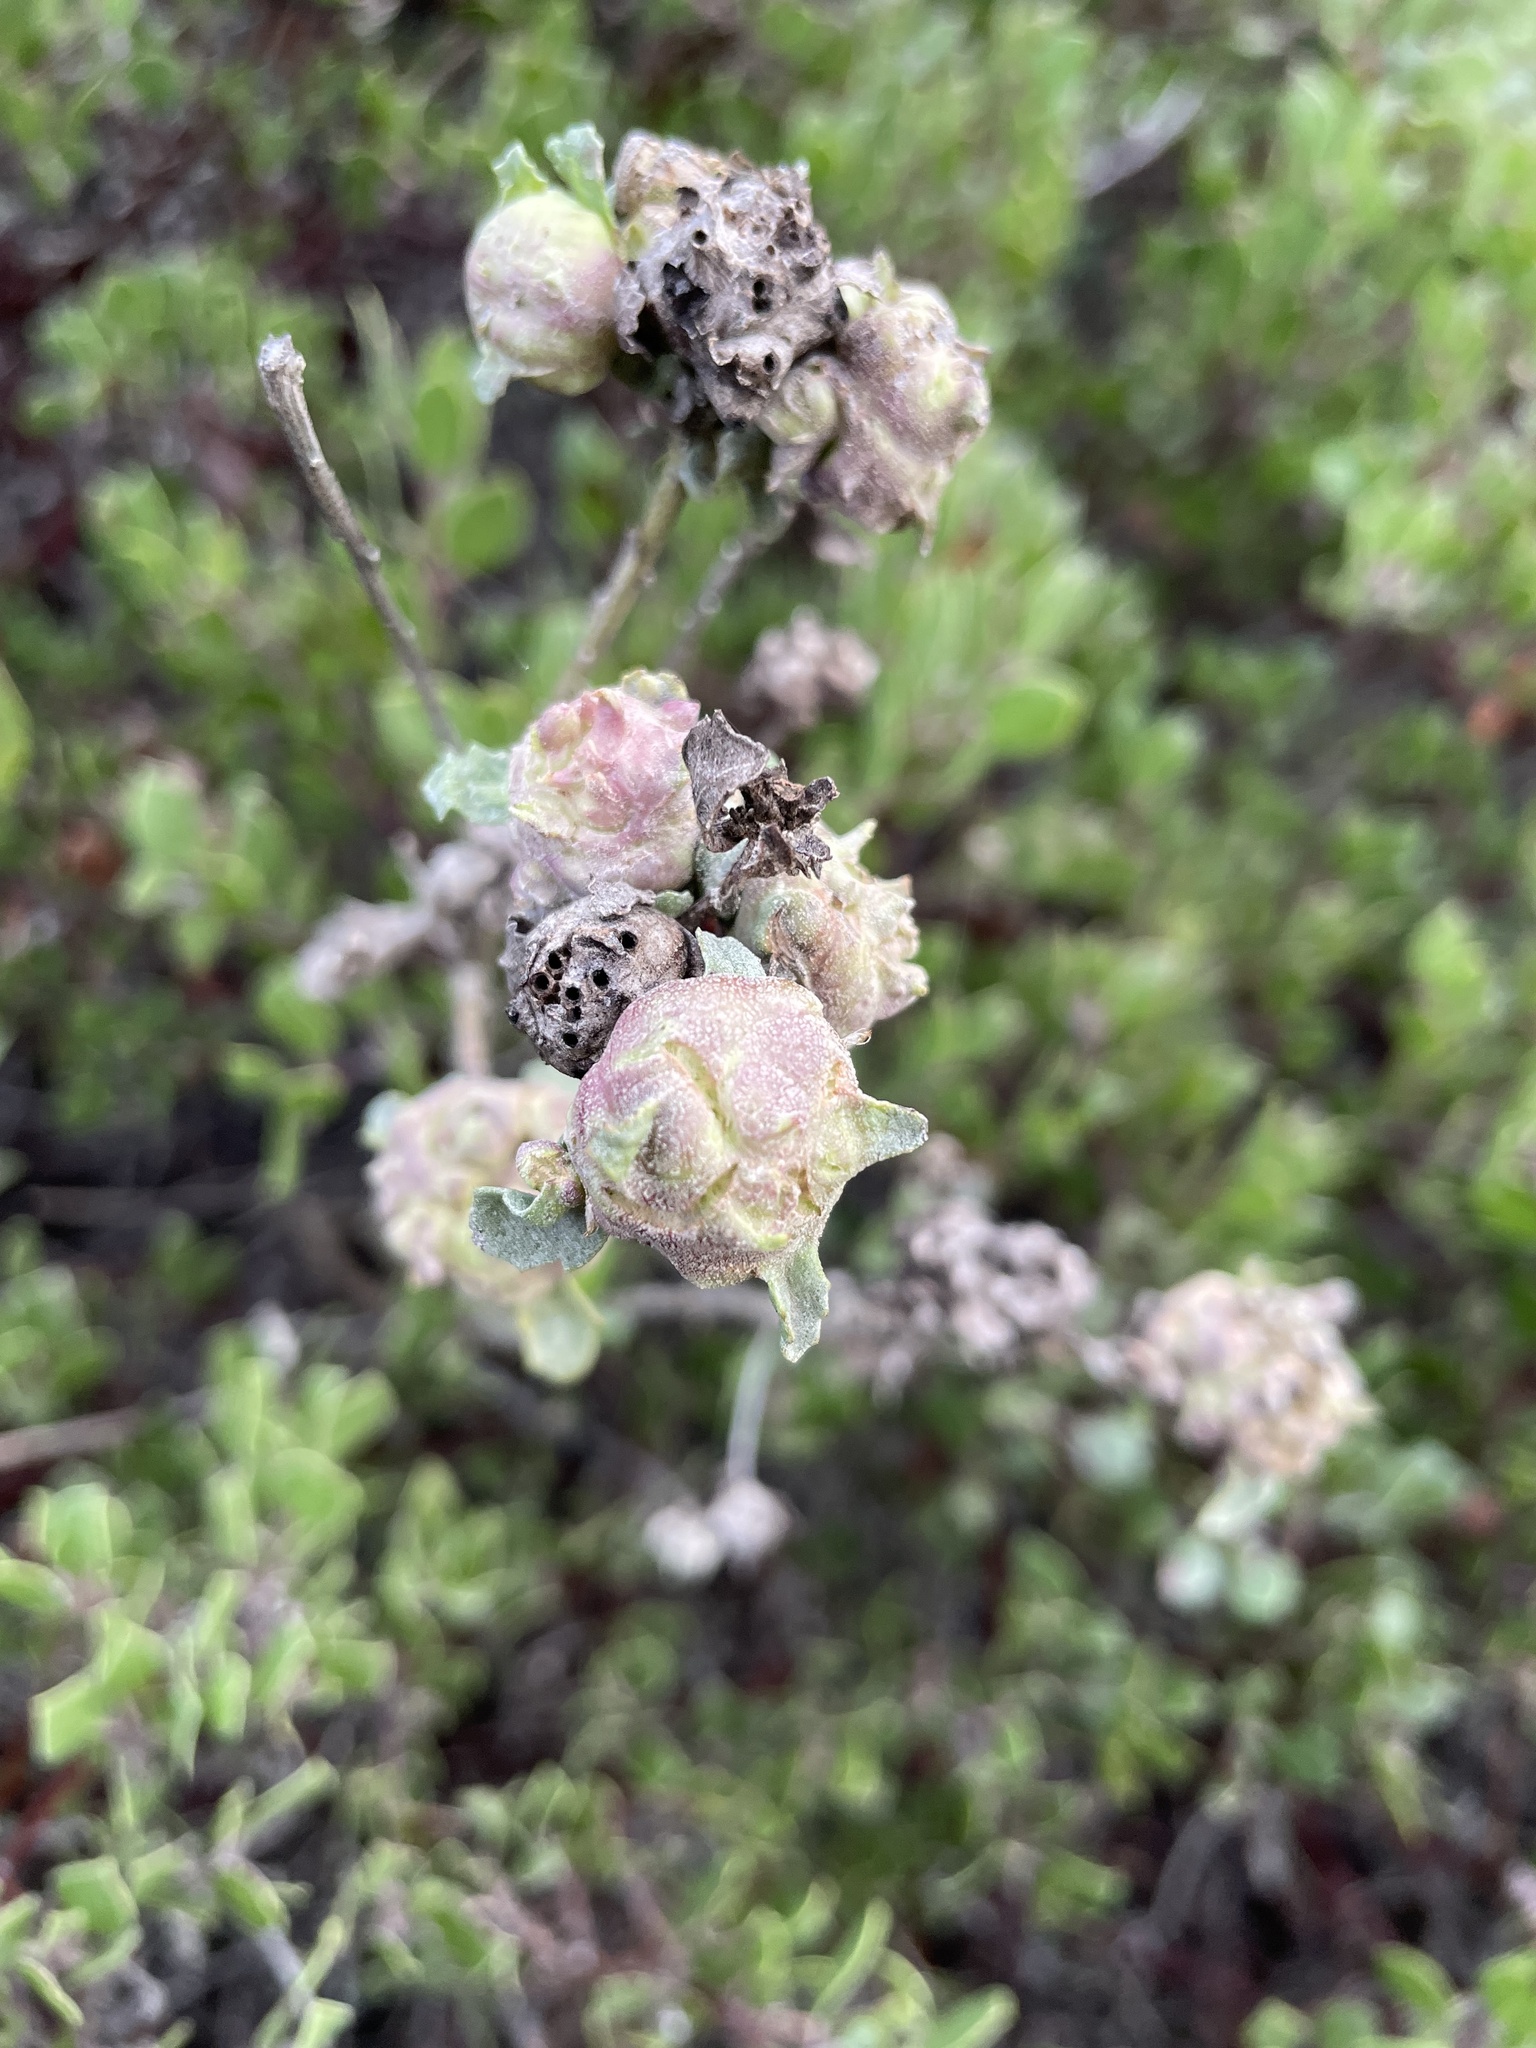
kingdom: Animalia
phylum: Arthropoda
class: Insecta
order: Diptera
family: Cecidomyiidae
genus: Rhopalomyia
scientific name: Rhopalomyia californica
